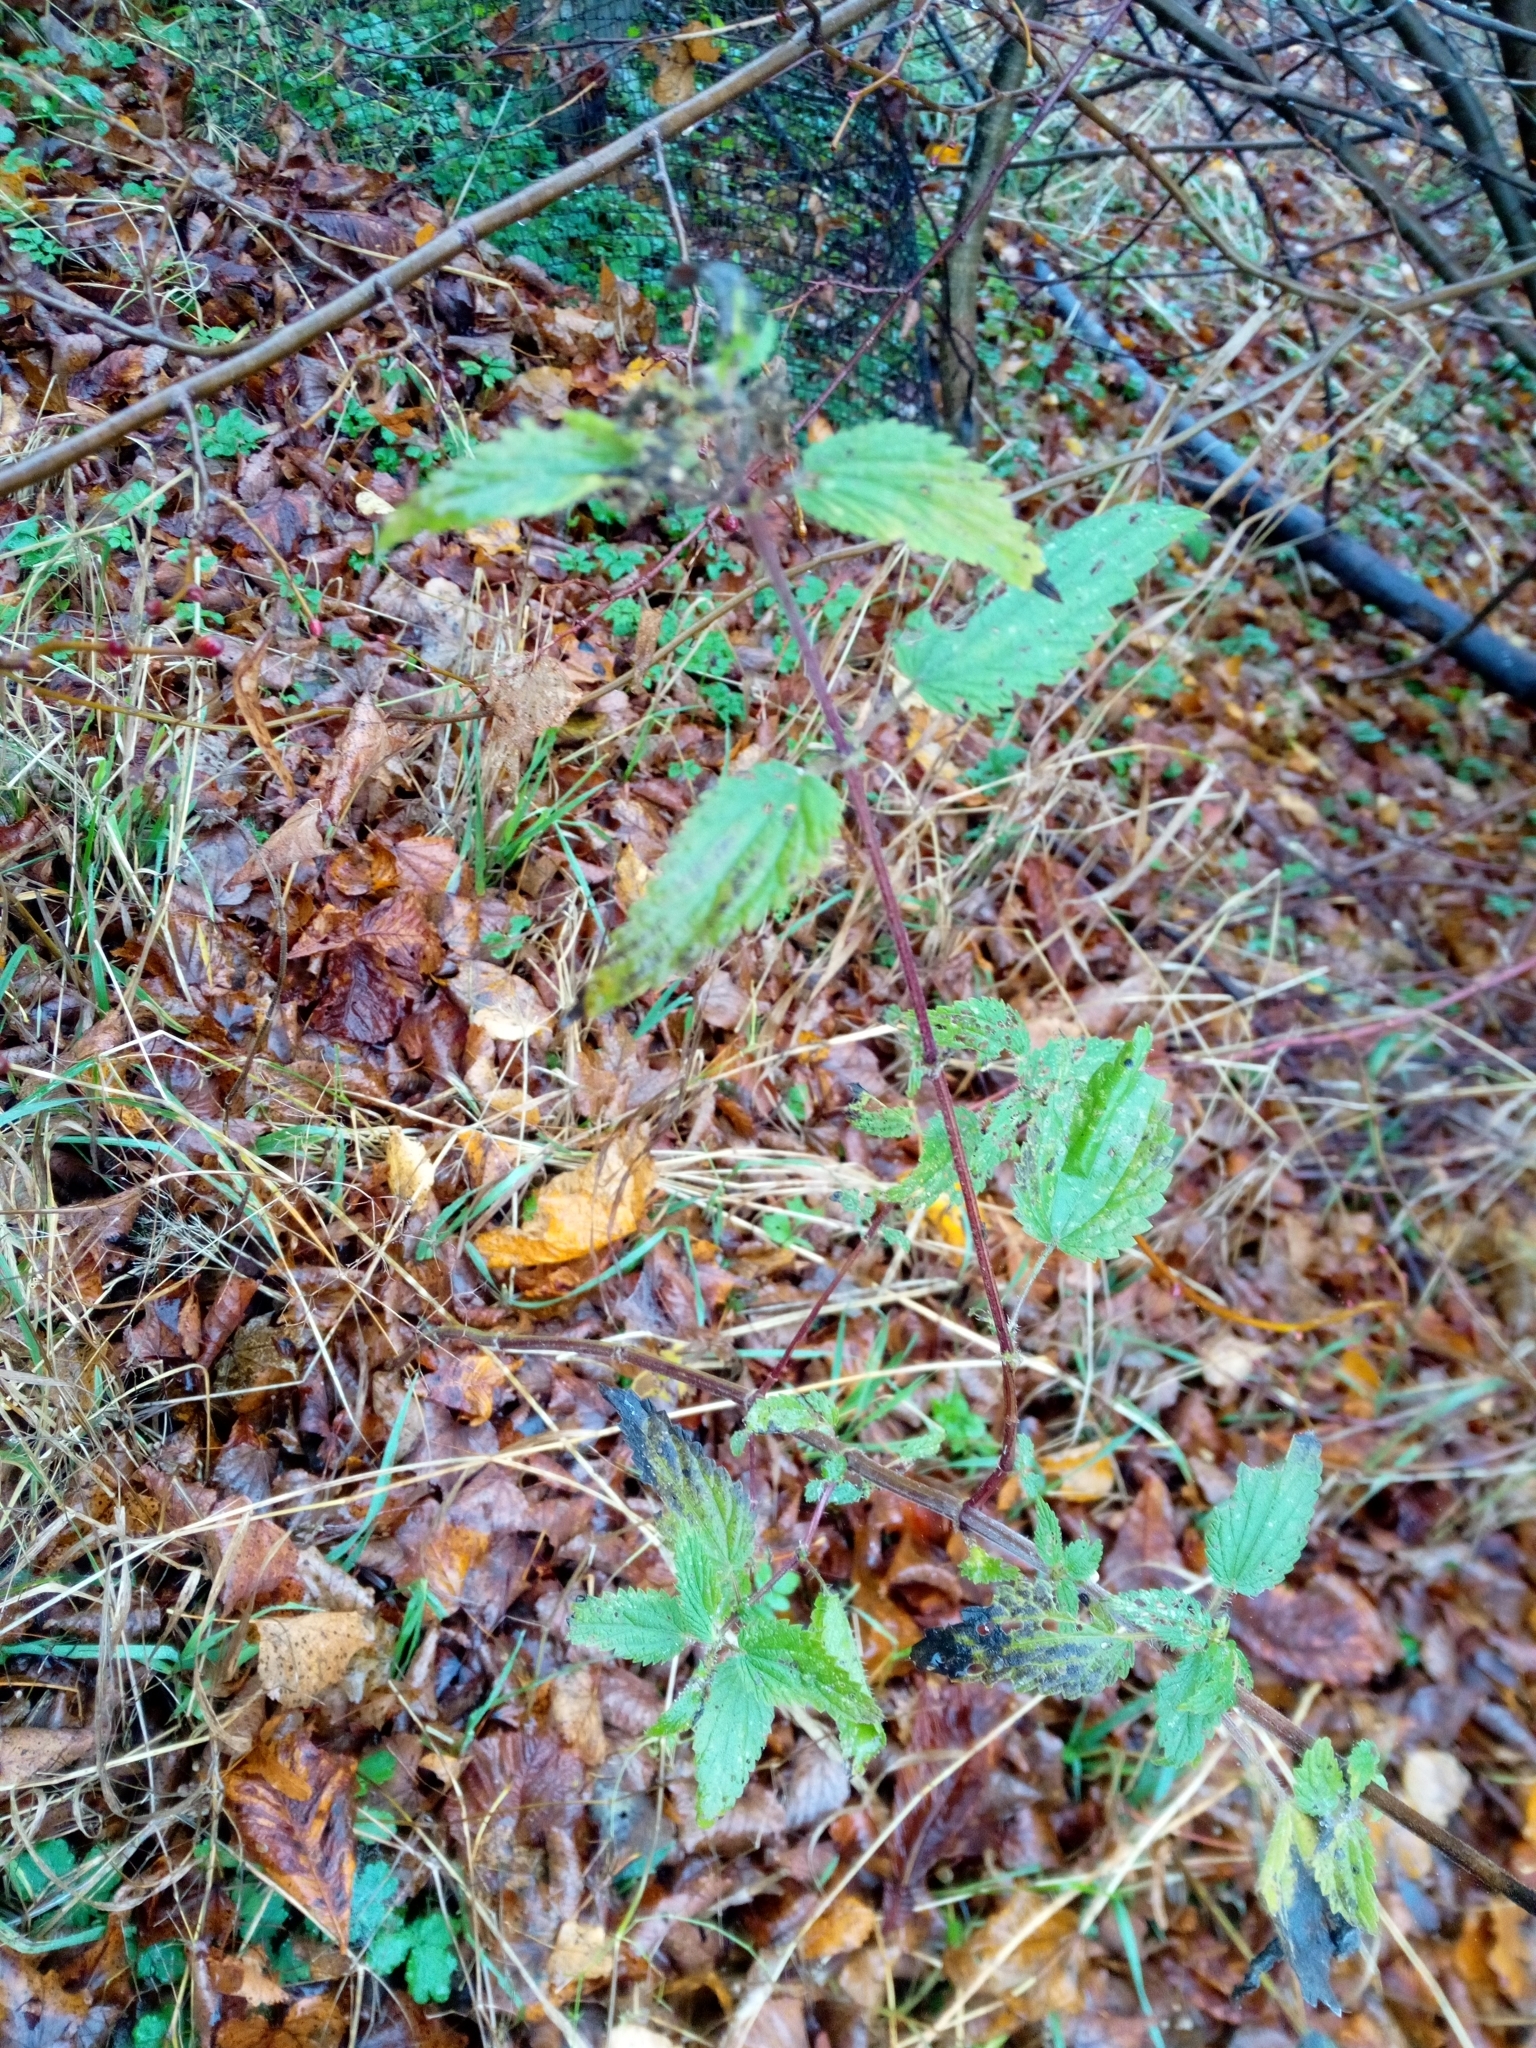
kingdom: Plantae
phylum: Tracheophyta
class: Magnoliopsida
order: Rosales
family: Urticaceae
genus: Urtica
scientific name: Urtica dioica
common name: Common nettle
